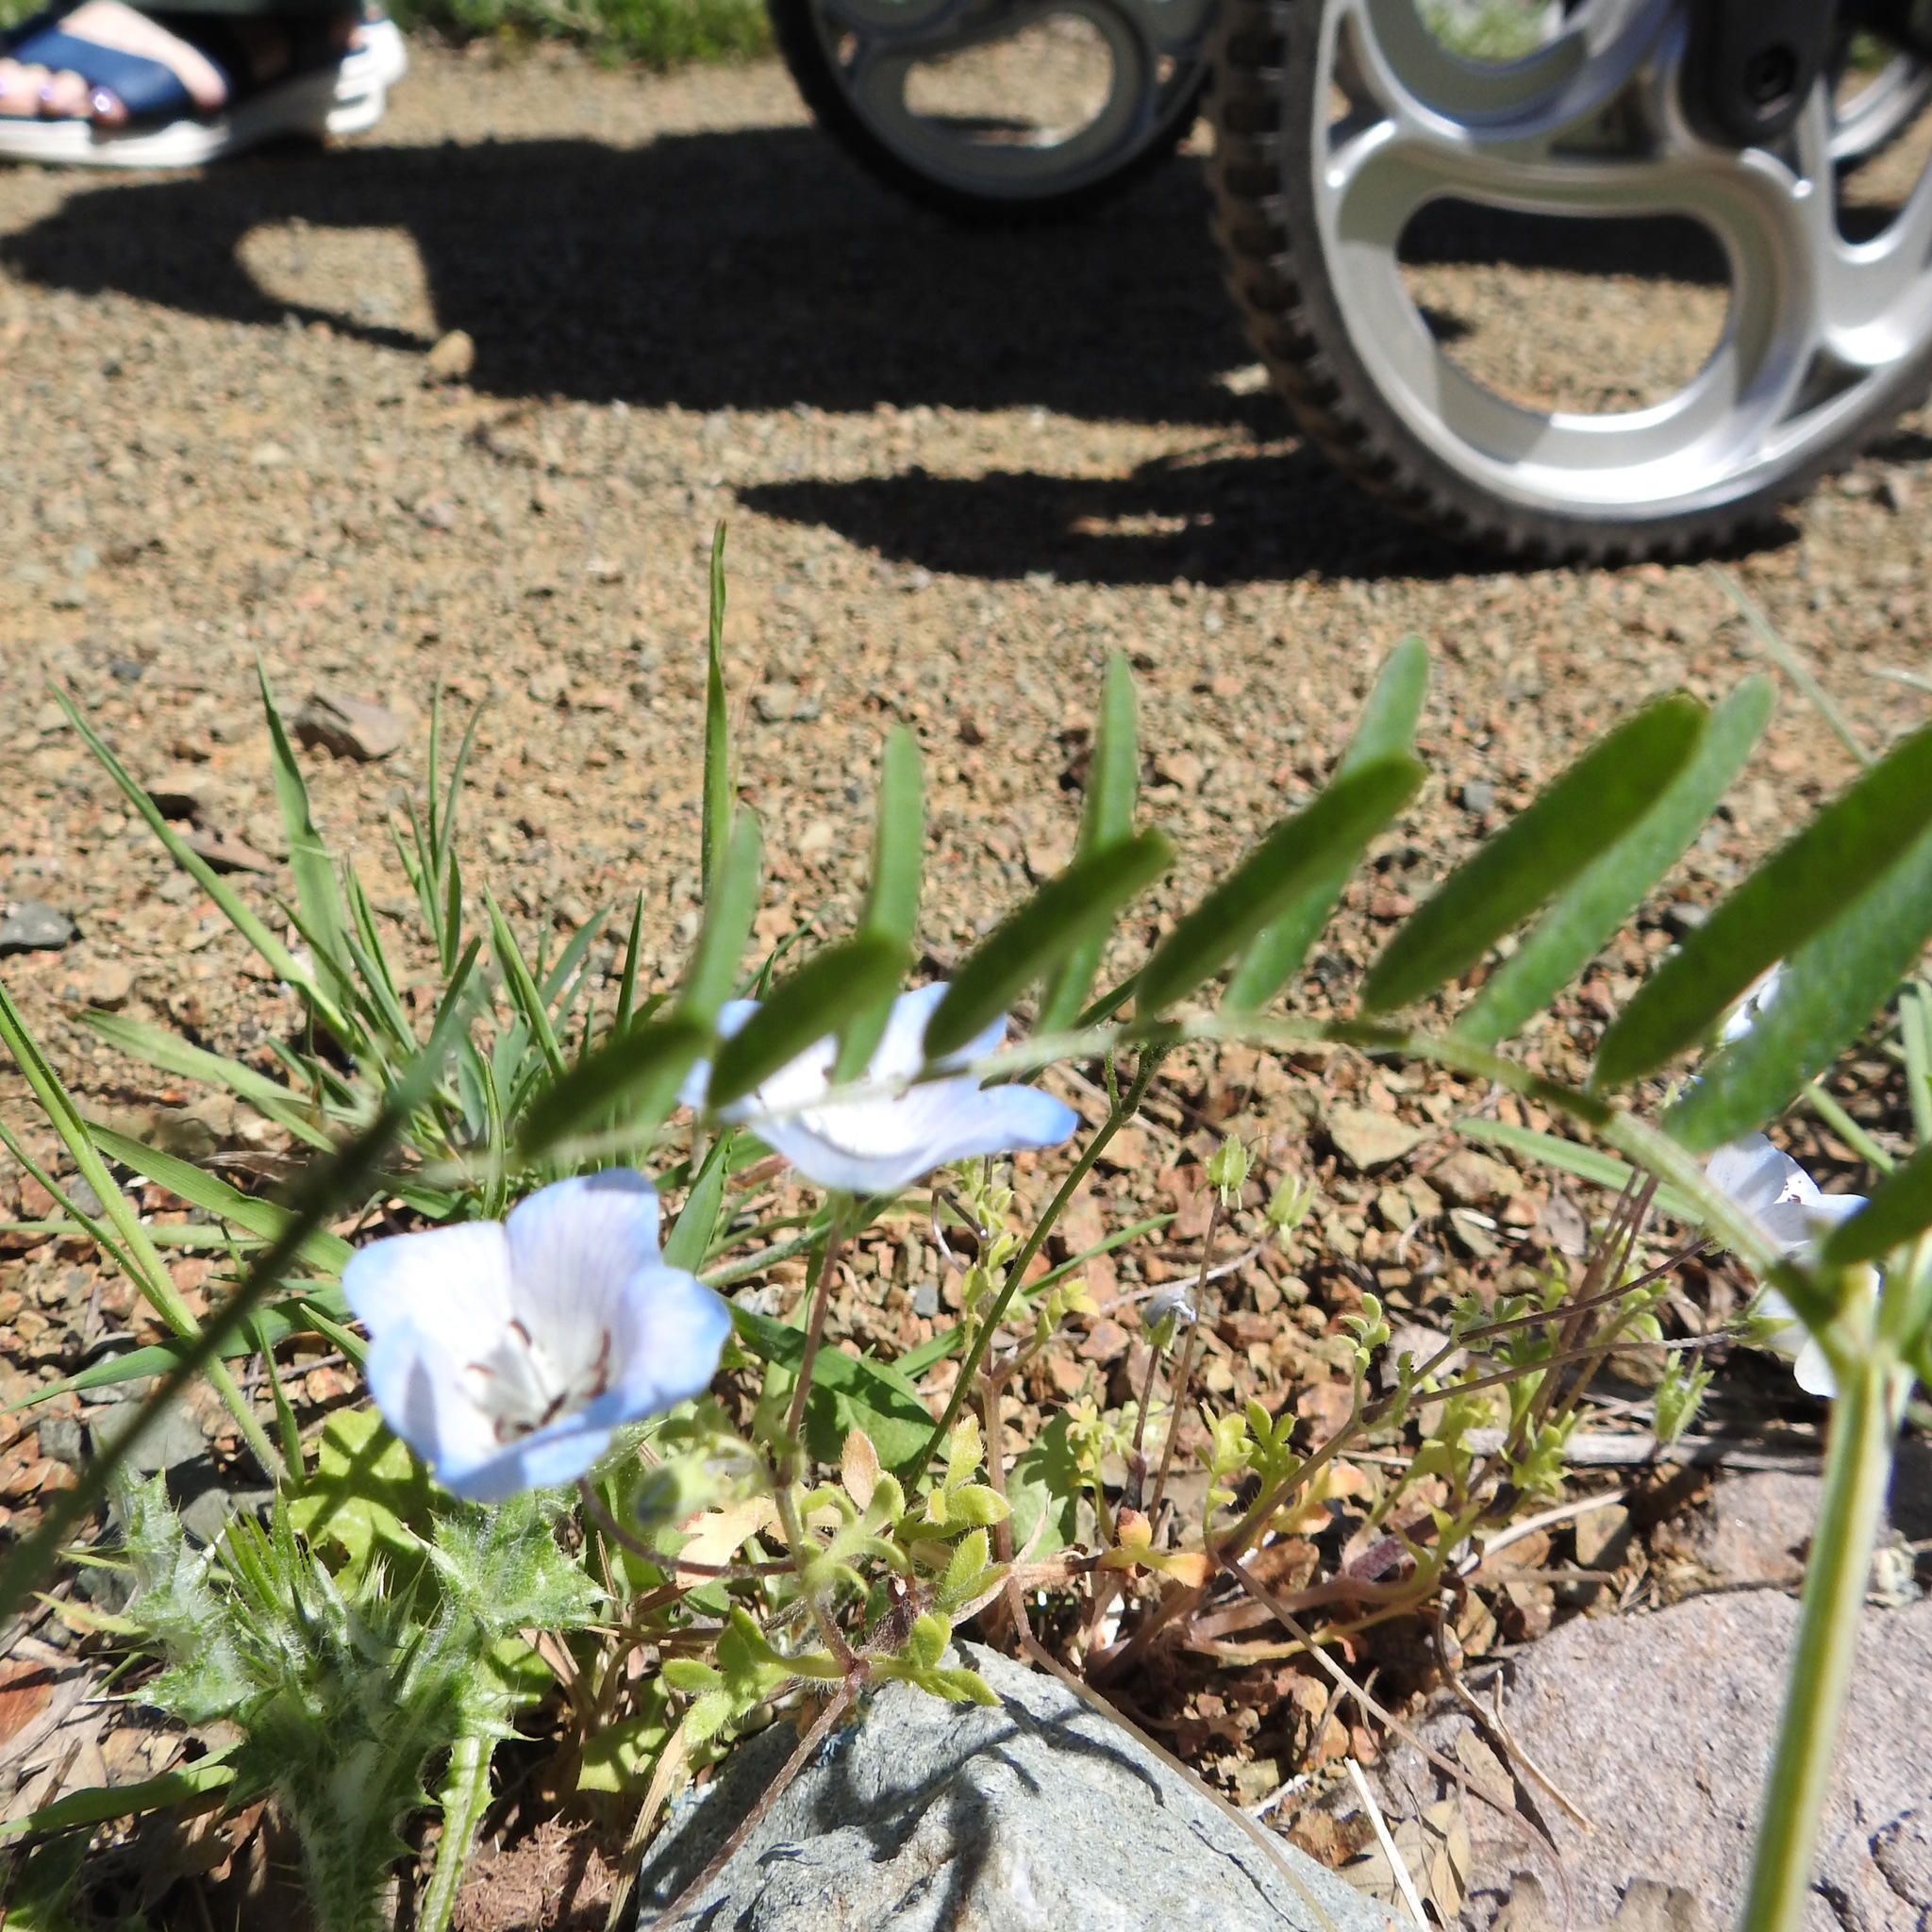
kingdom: Plantae
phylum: Tracheophyta
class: Magnoliopsida
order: Boraginales
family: Hydrophyllaceae
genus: Nemophila
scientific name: Nemophila menziesii
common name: Baby's-blue-eyes
